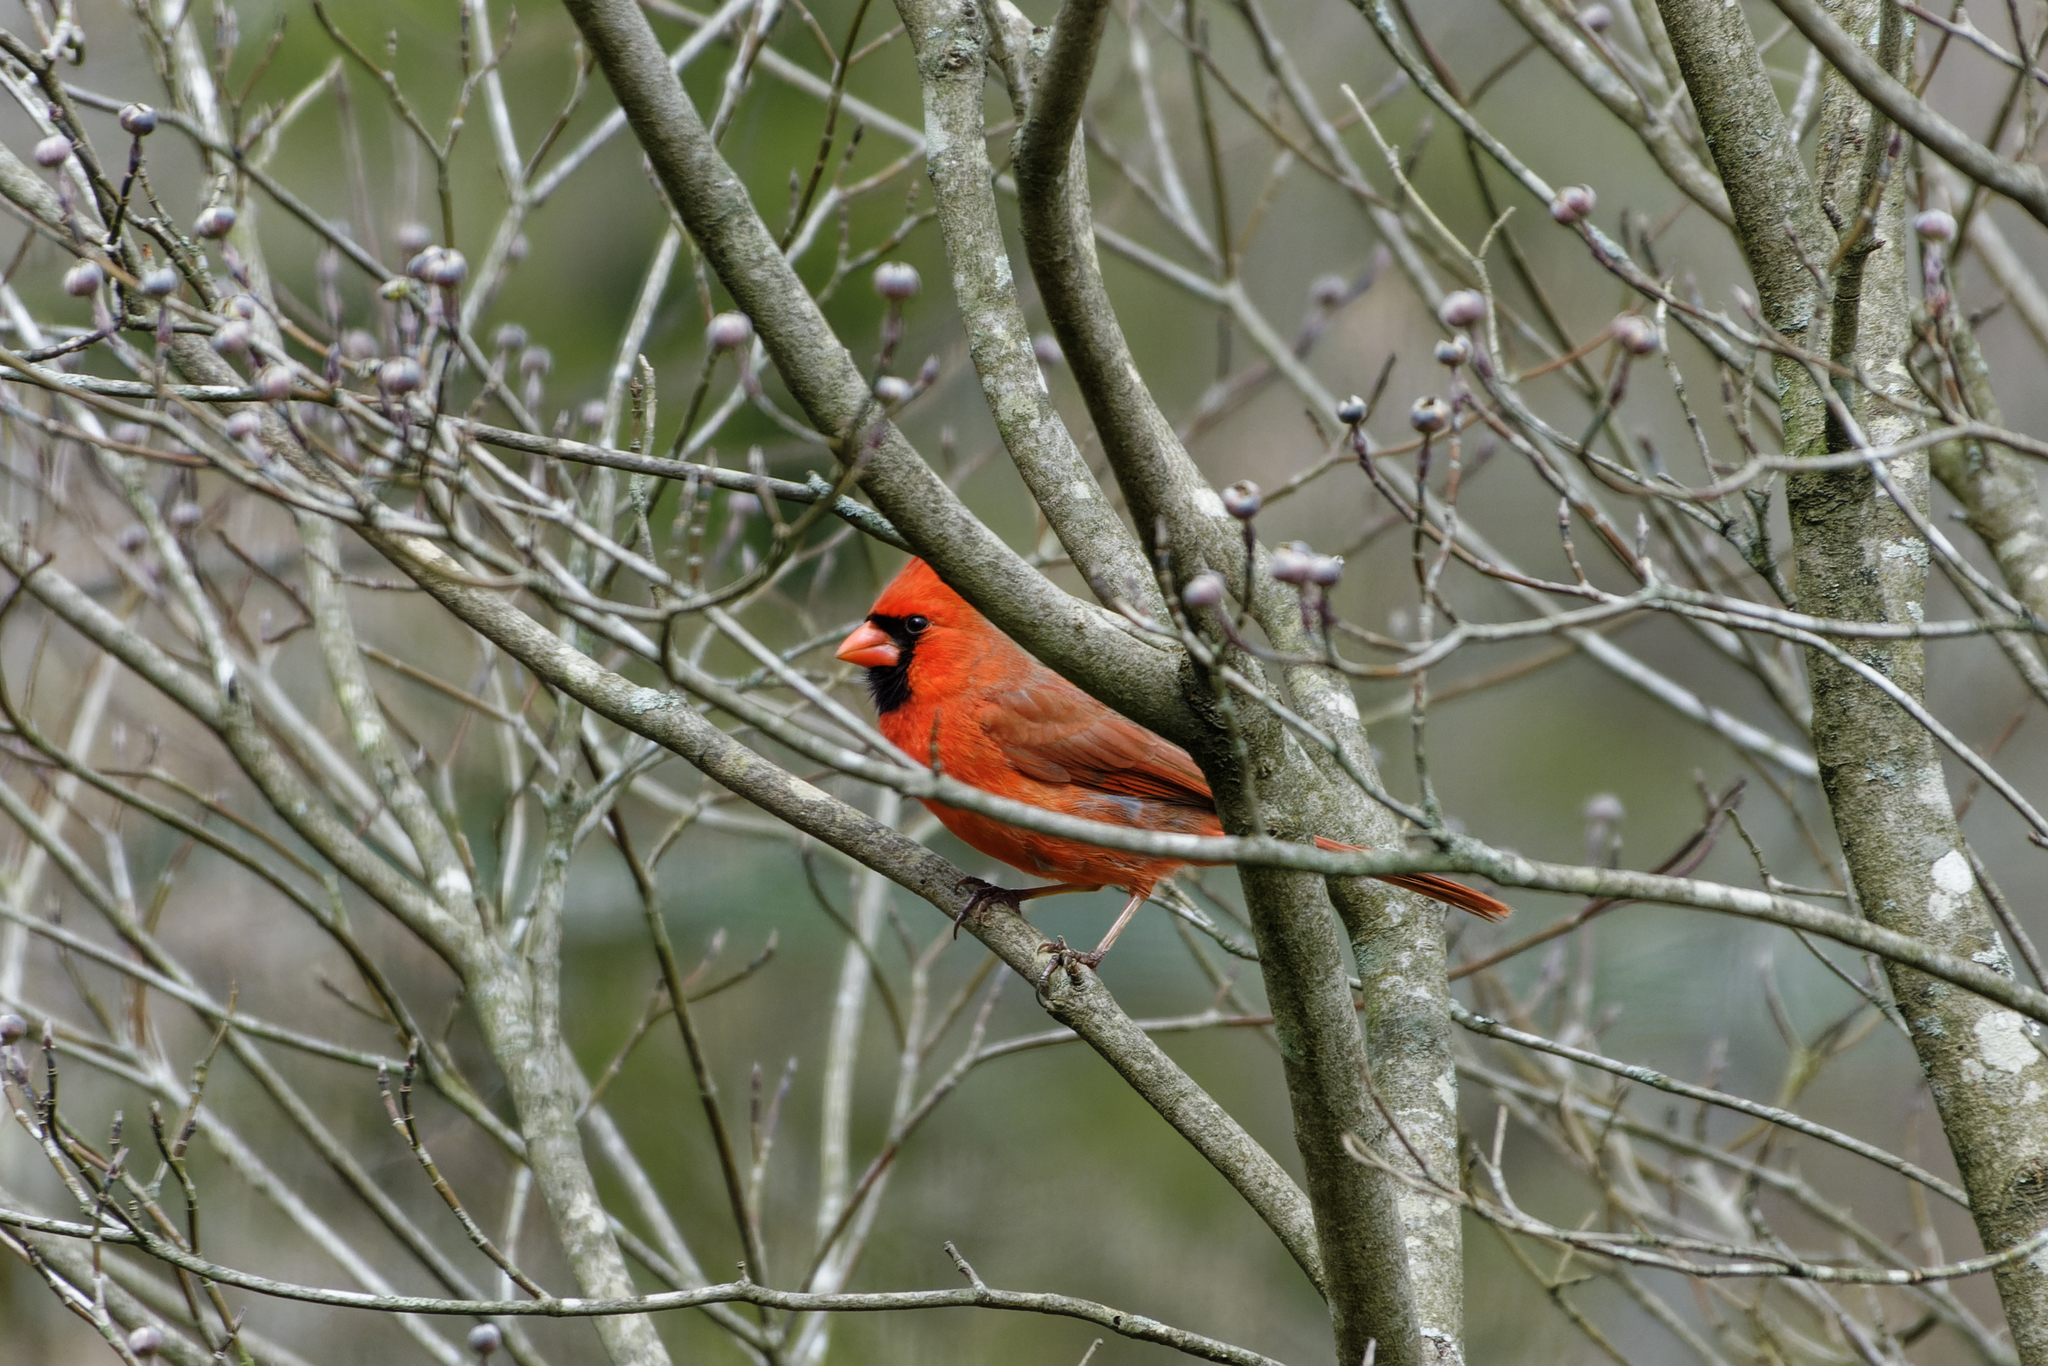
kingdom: Animalia
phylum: Chordata
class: Aves
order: Passeriformes
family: Cardinalidae
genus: Cardinalis
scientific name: Cardinalis cardinalis
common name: Northern cardinal
